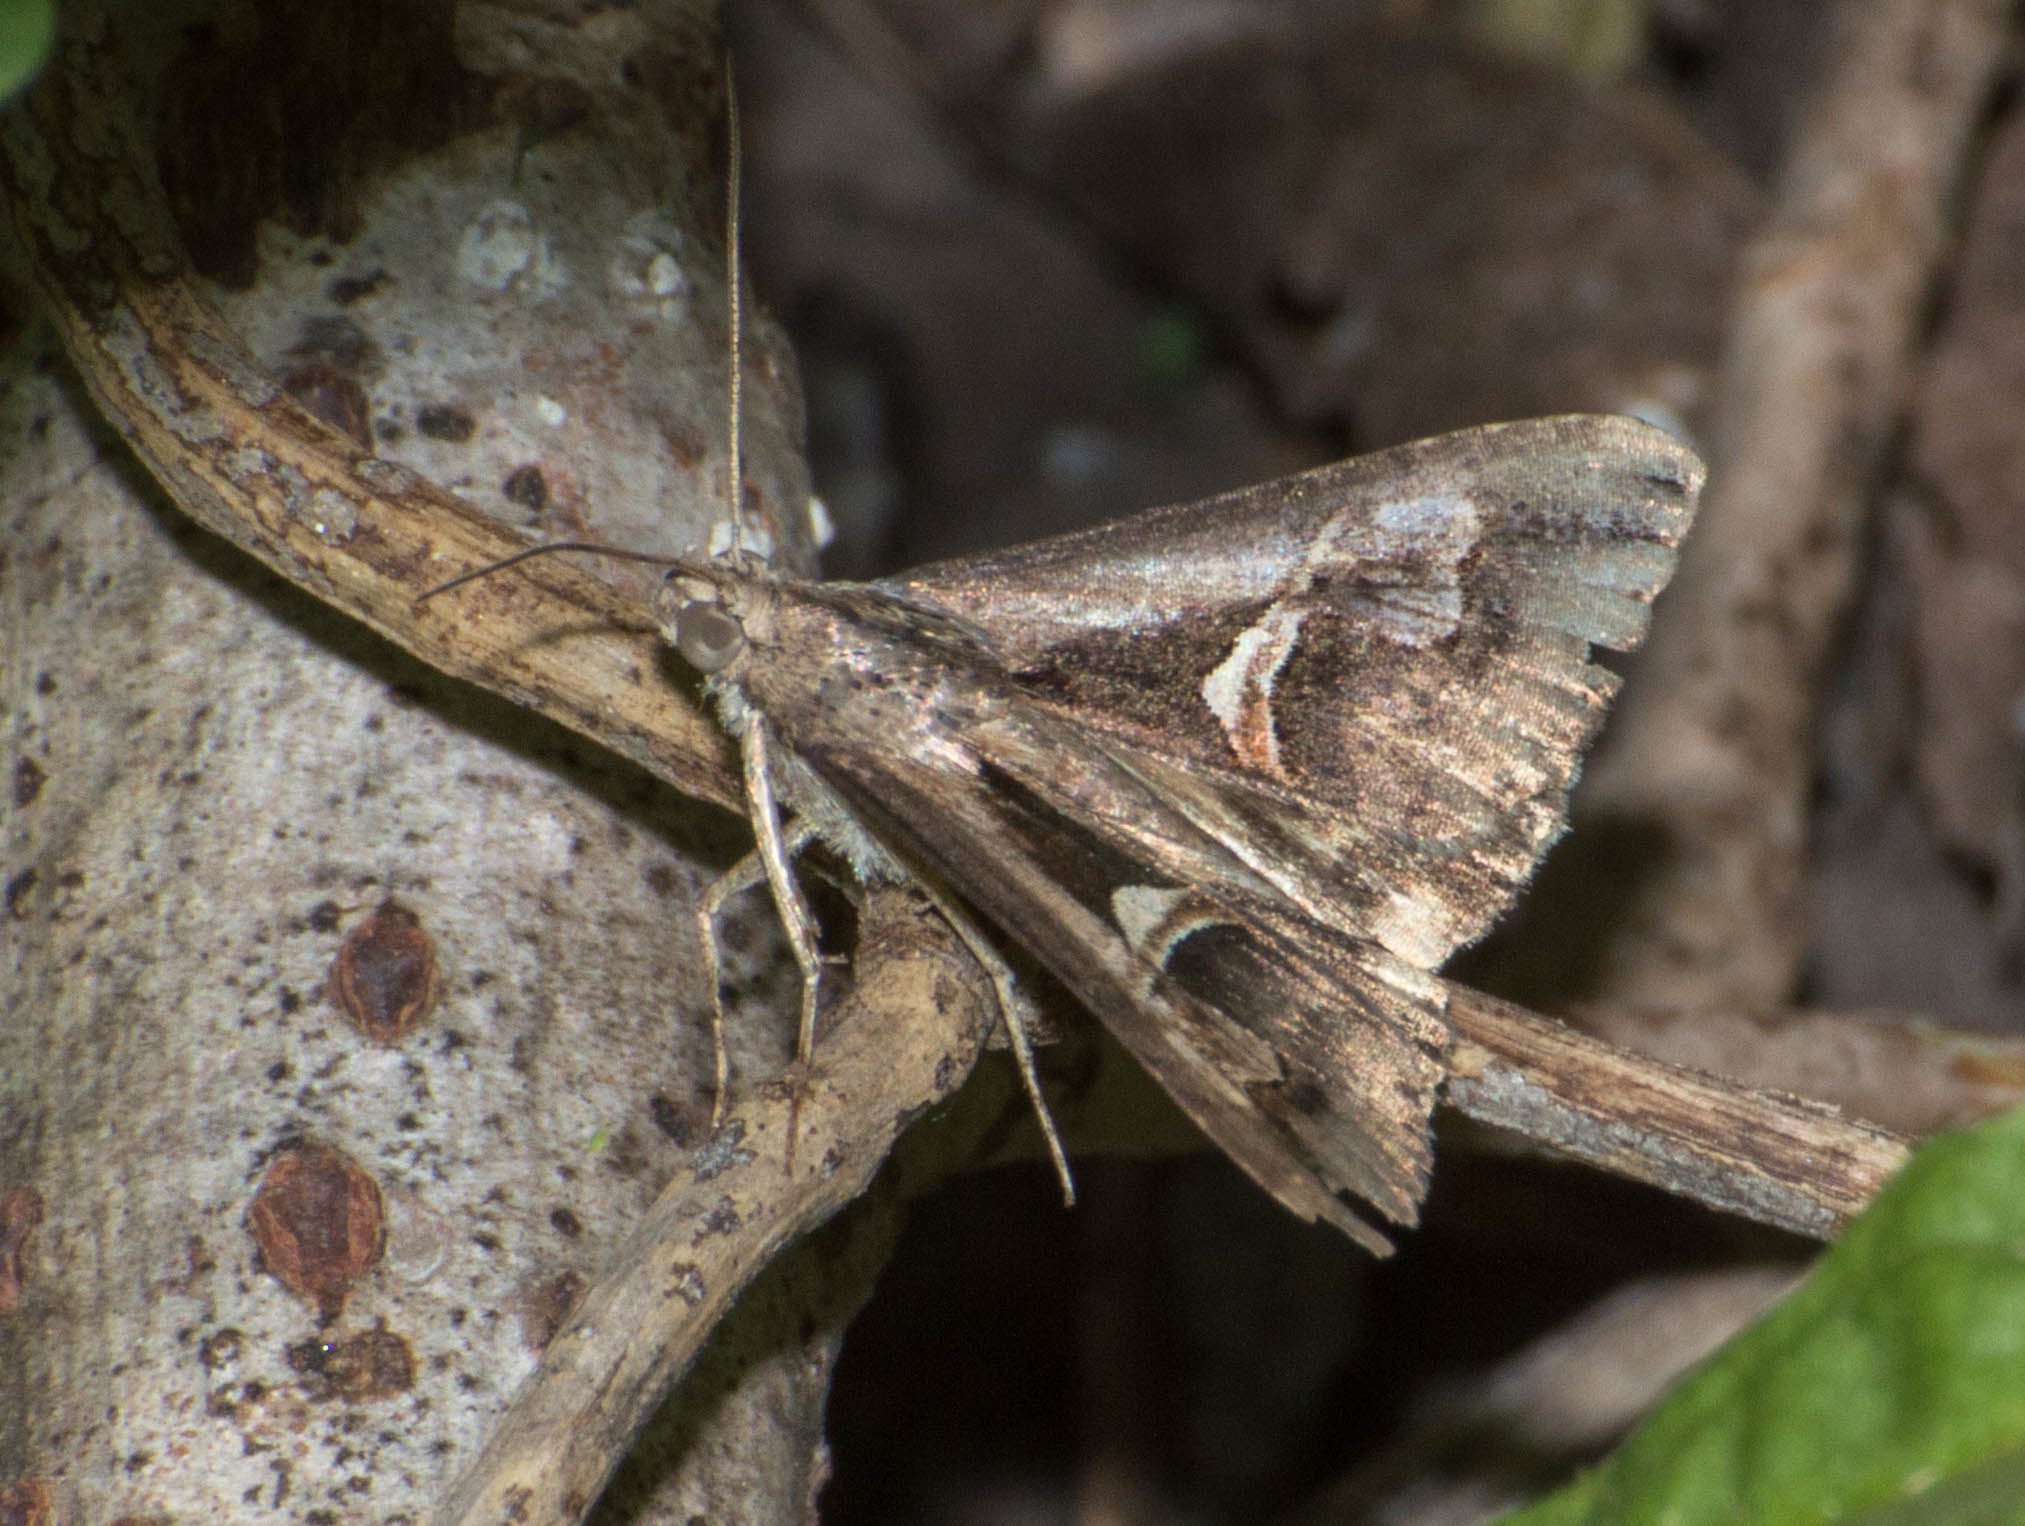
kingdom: Animalia
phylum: Arthropoda
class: Insecta
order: Lepidoptera
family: Erebidae
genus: Melipotis
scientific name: Melipotis cellaris
